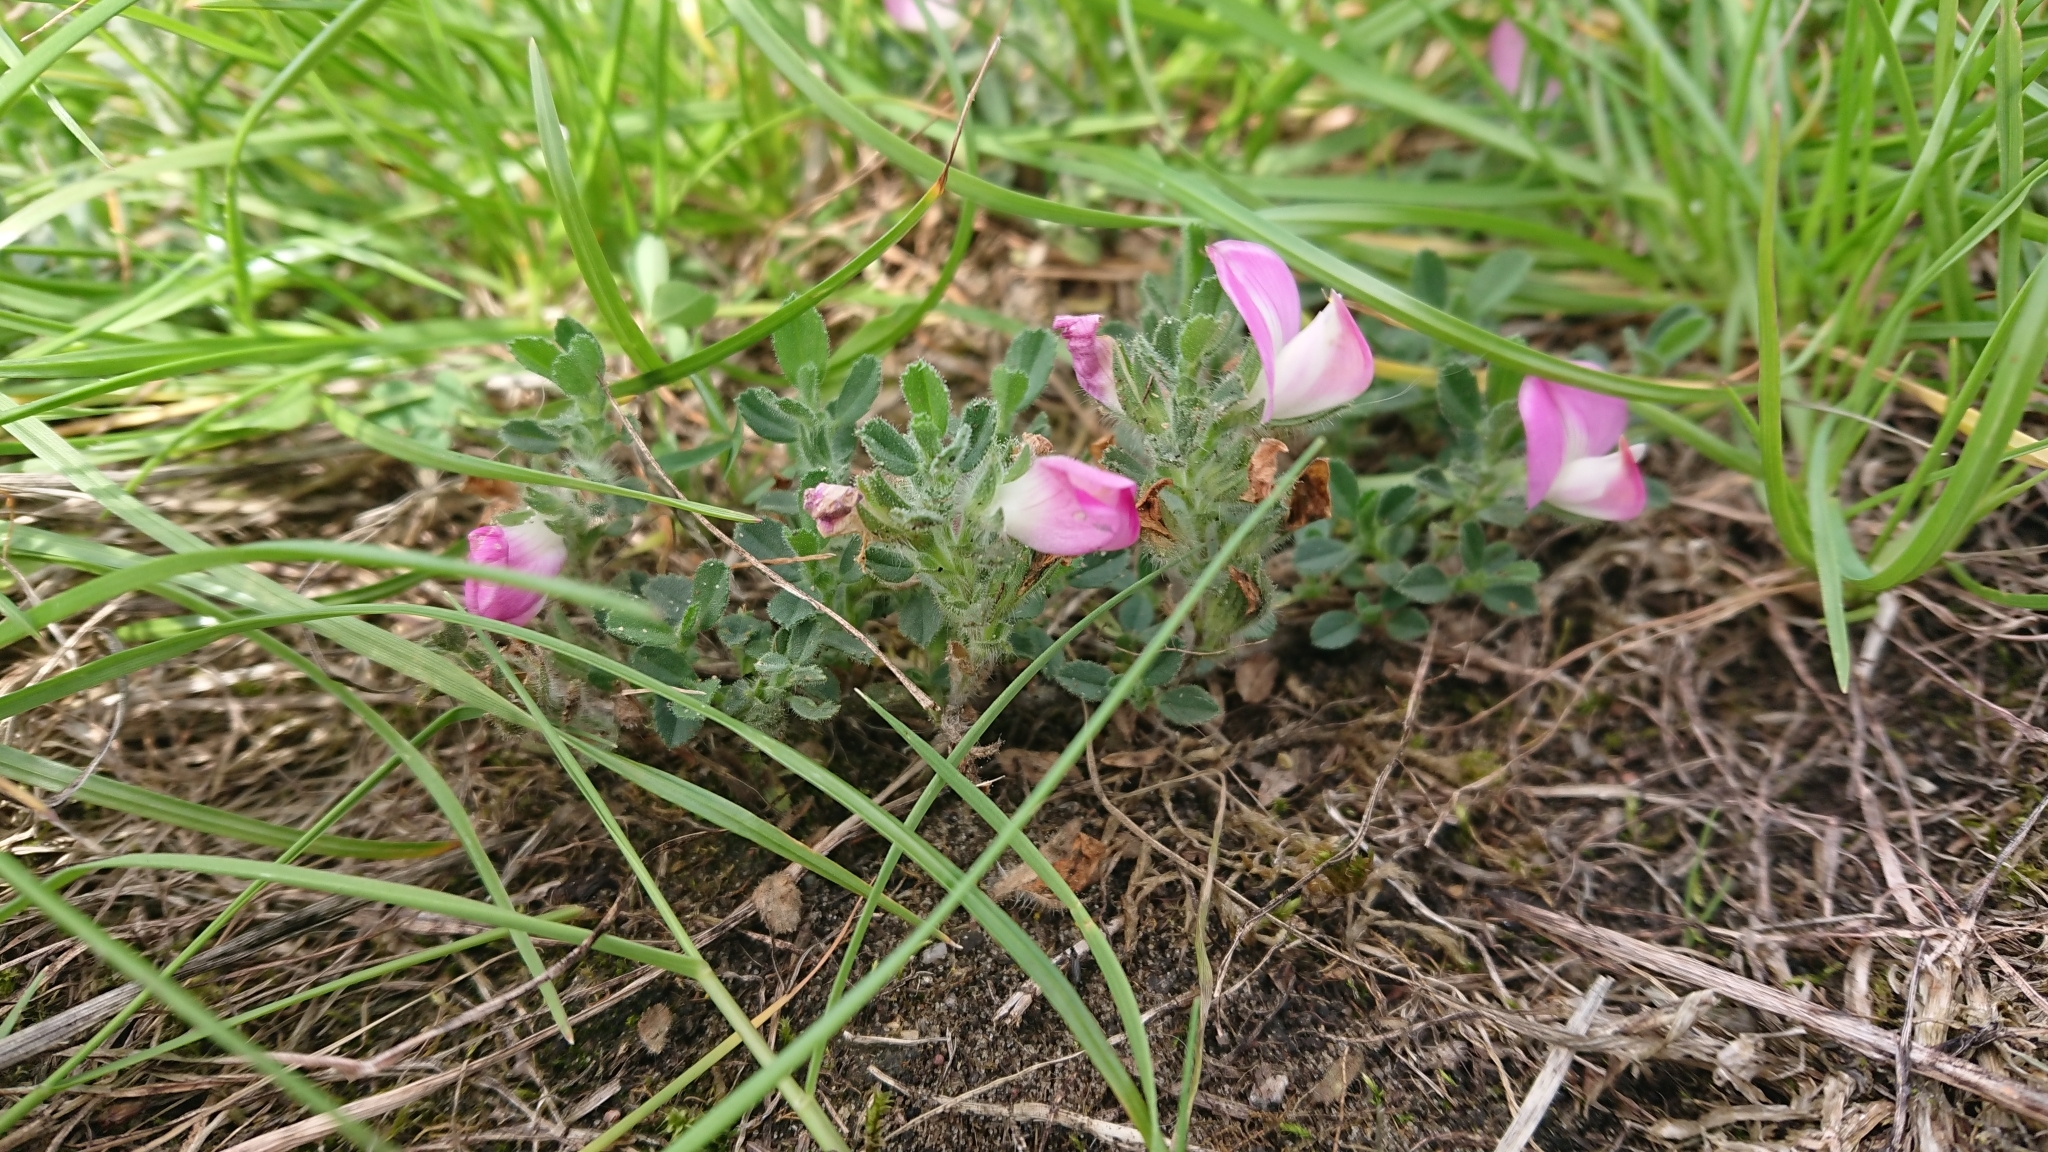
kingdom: Plantae
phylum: Tracheophyta
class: Magnoliopsida
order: Fabales
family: Fabaceae
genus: Ononis
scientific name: Ononis spinosa
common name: Spiny restharrow
